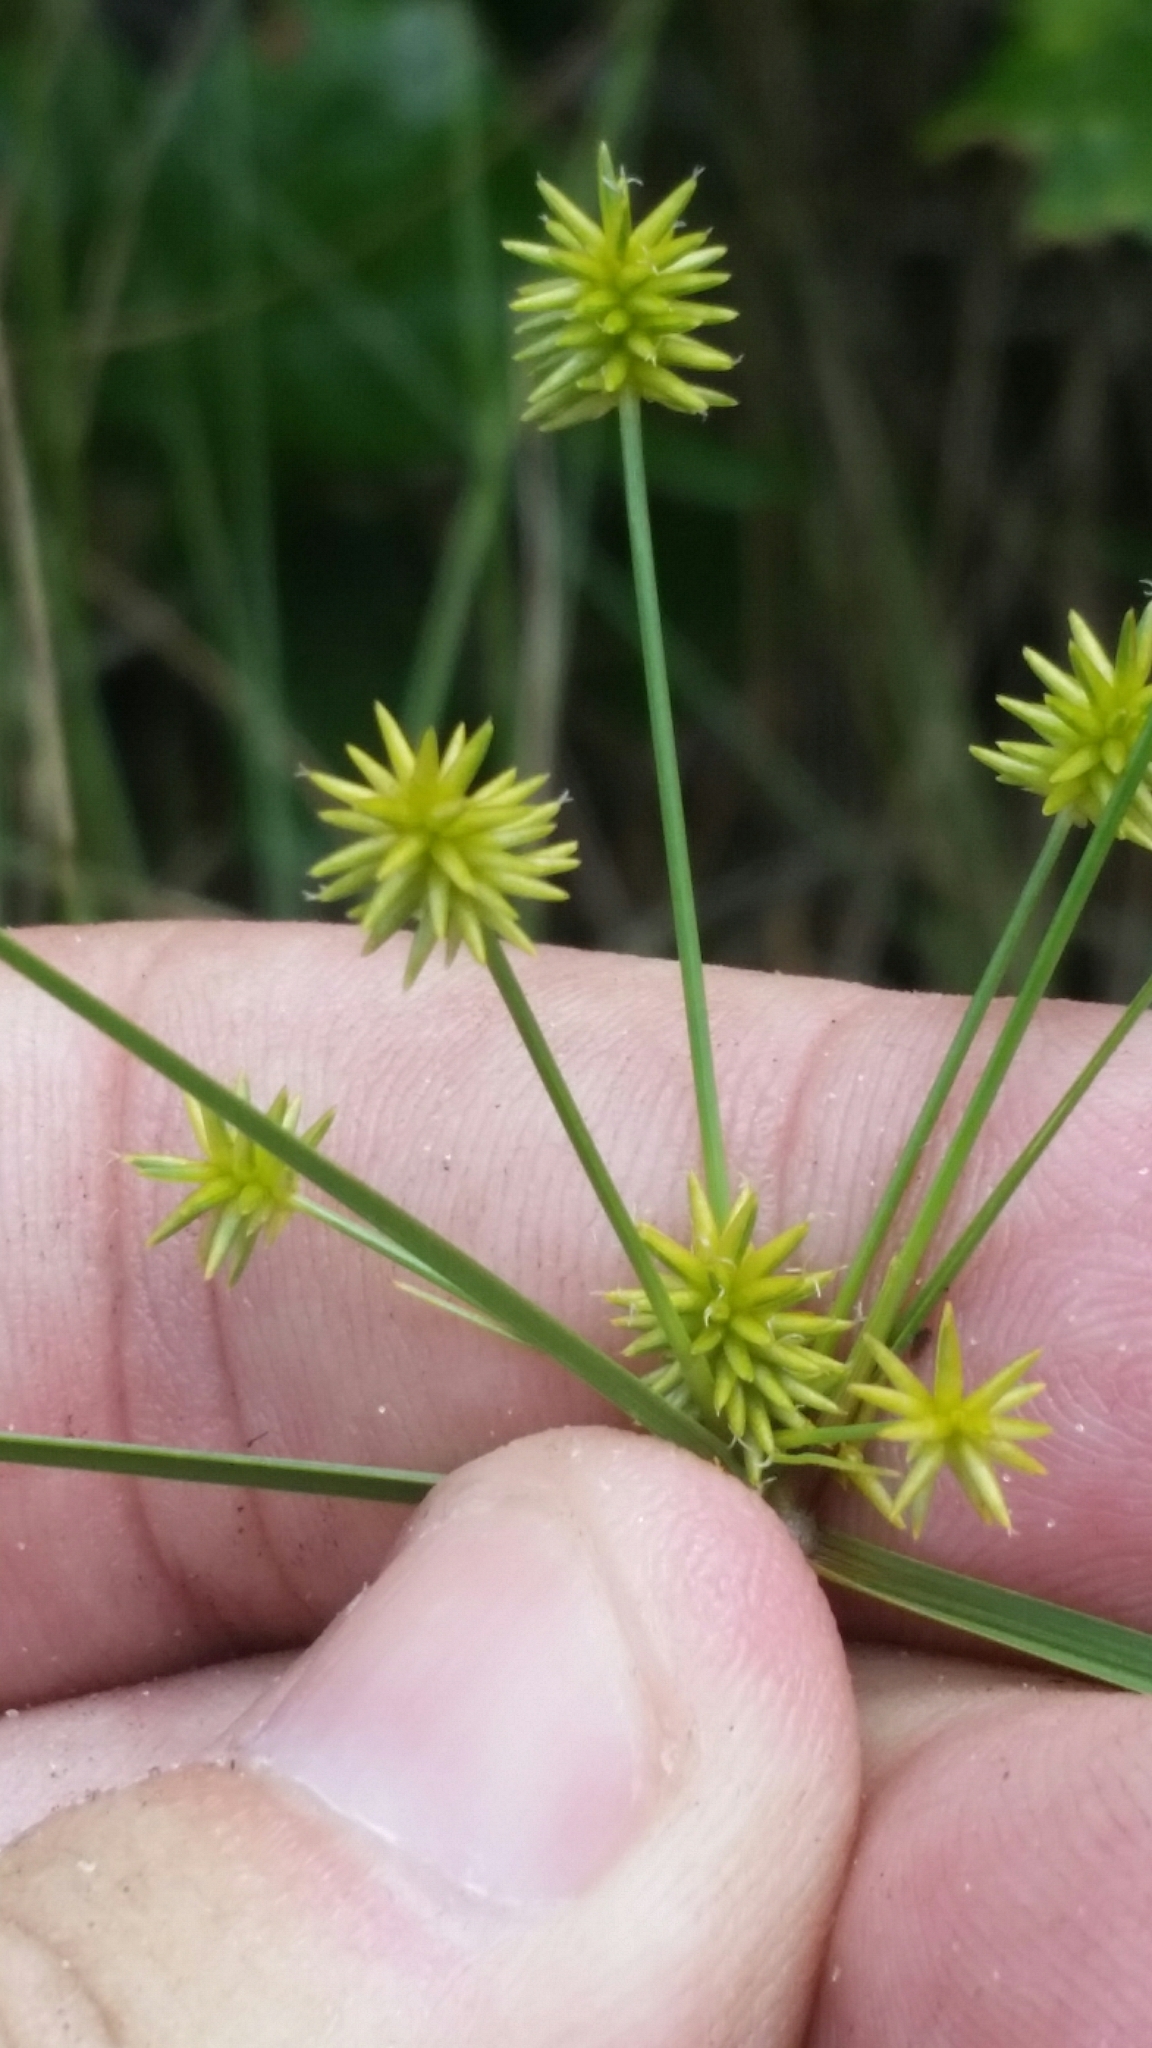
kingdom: Plantae
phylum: Tracheophyta
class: Liliopsida
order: Poales
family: Cyperaceae
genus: Cyperus
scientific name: Cyperus retrorsus
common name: Pinebarren flat sedge
